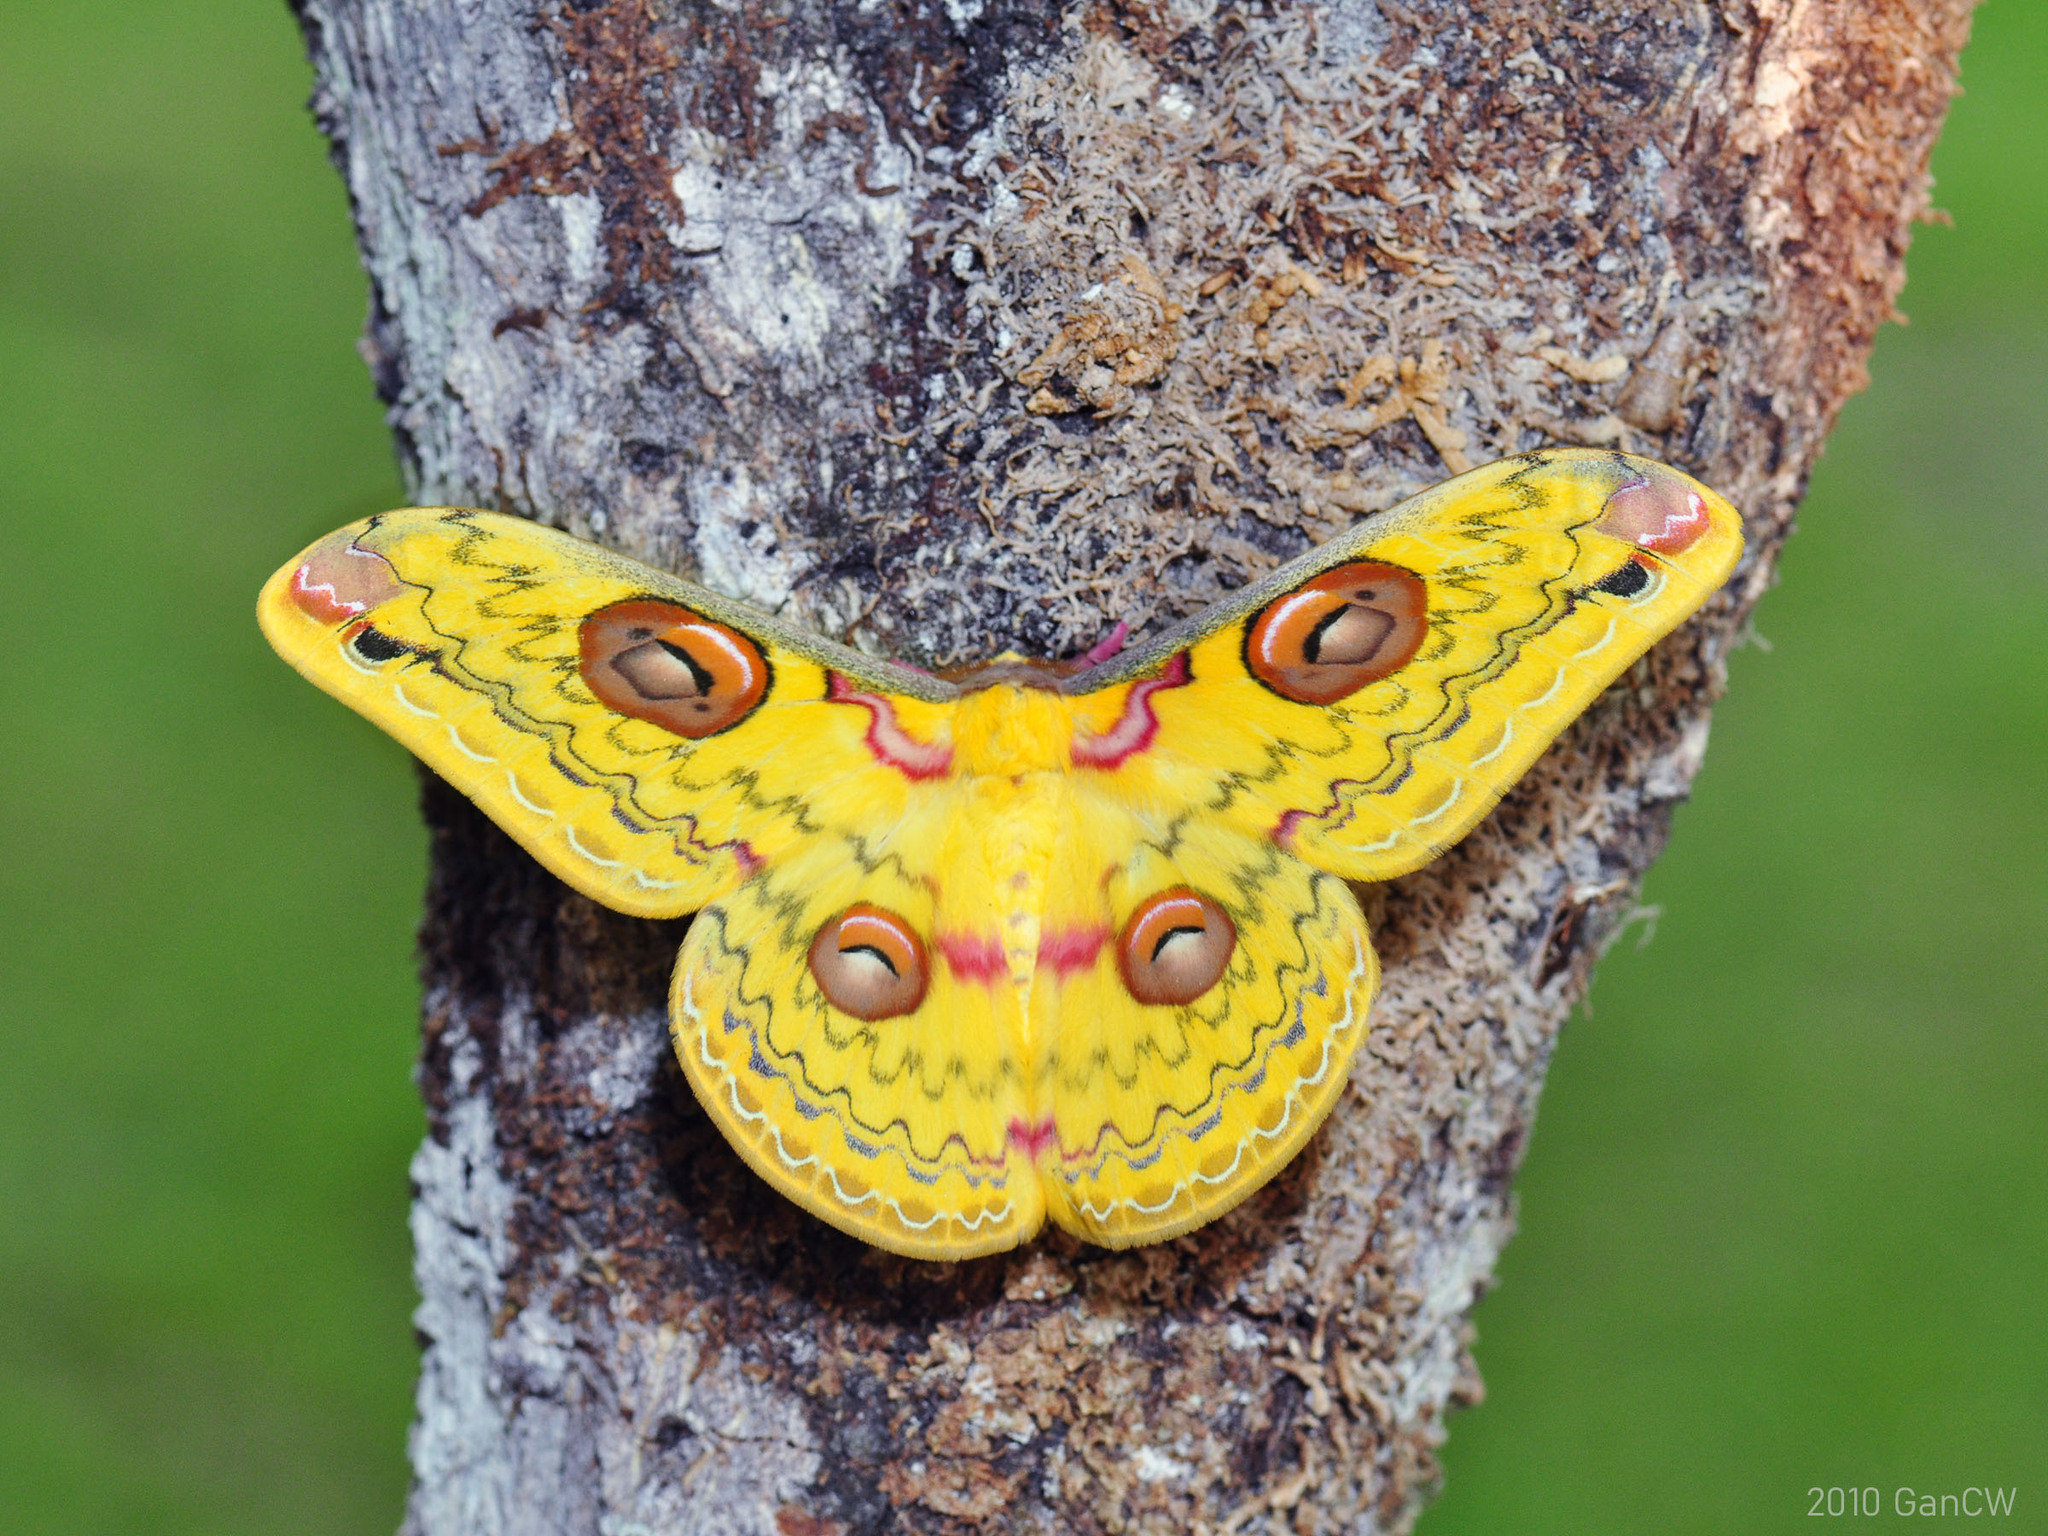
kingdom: Animalia
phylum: Arthropoda
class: Insecta
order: Lepidoptera
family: Saturniidae
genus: Loepa
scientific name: Loepa siamensis
